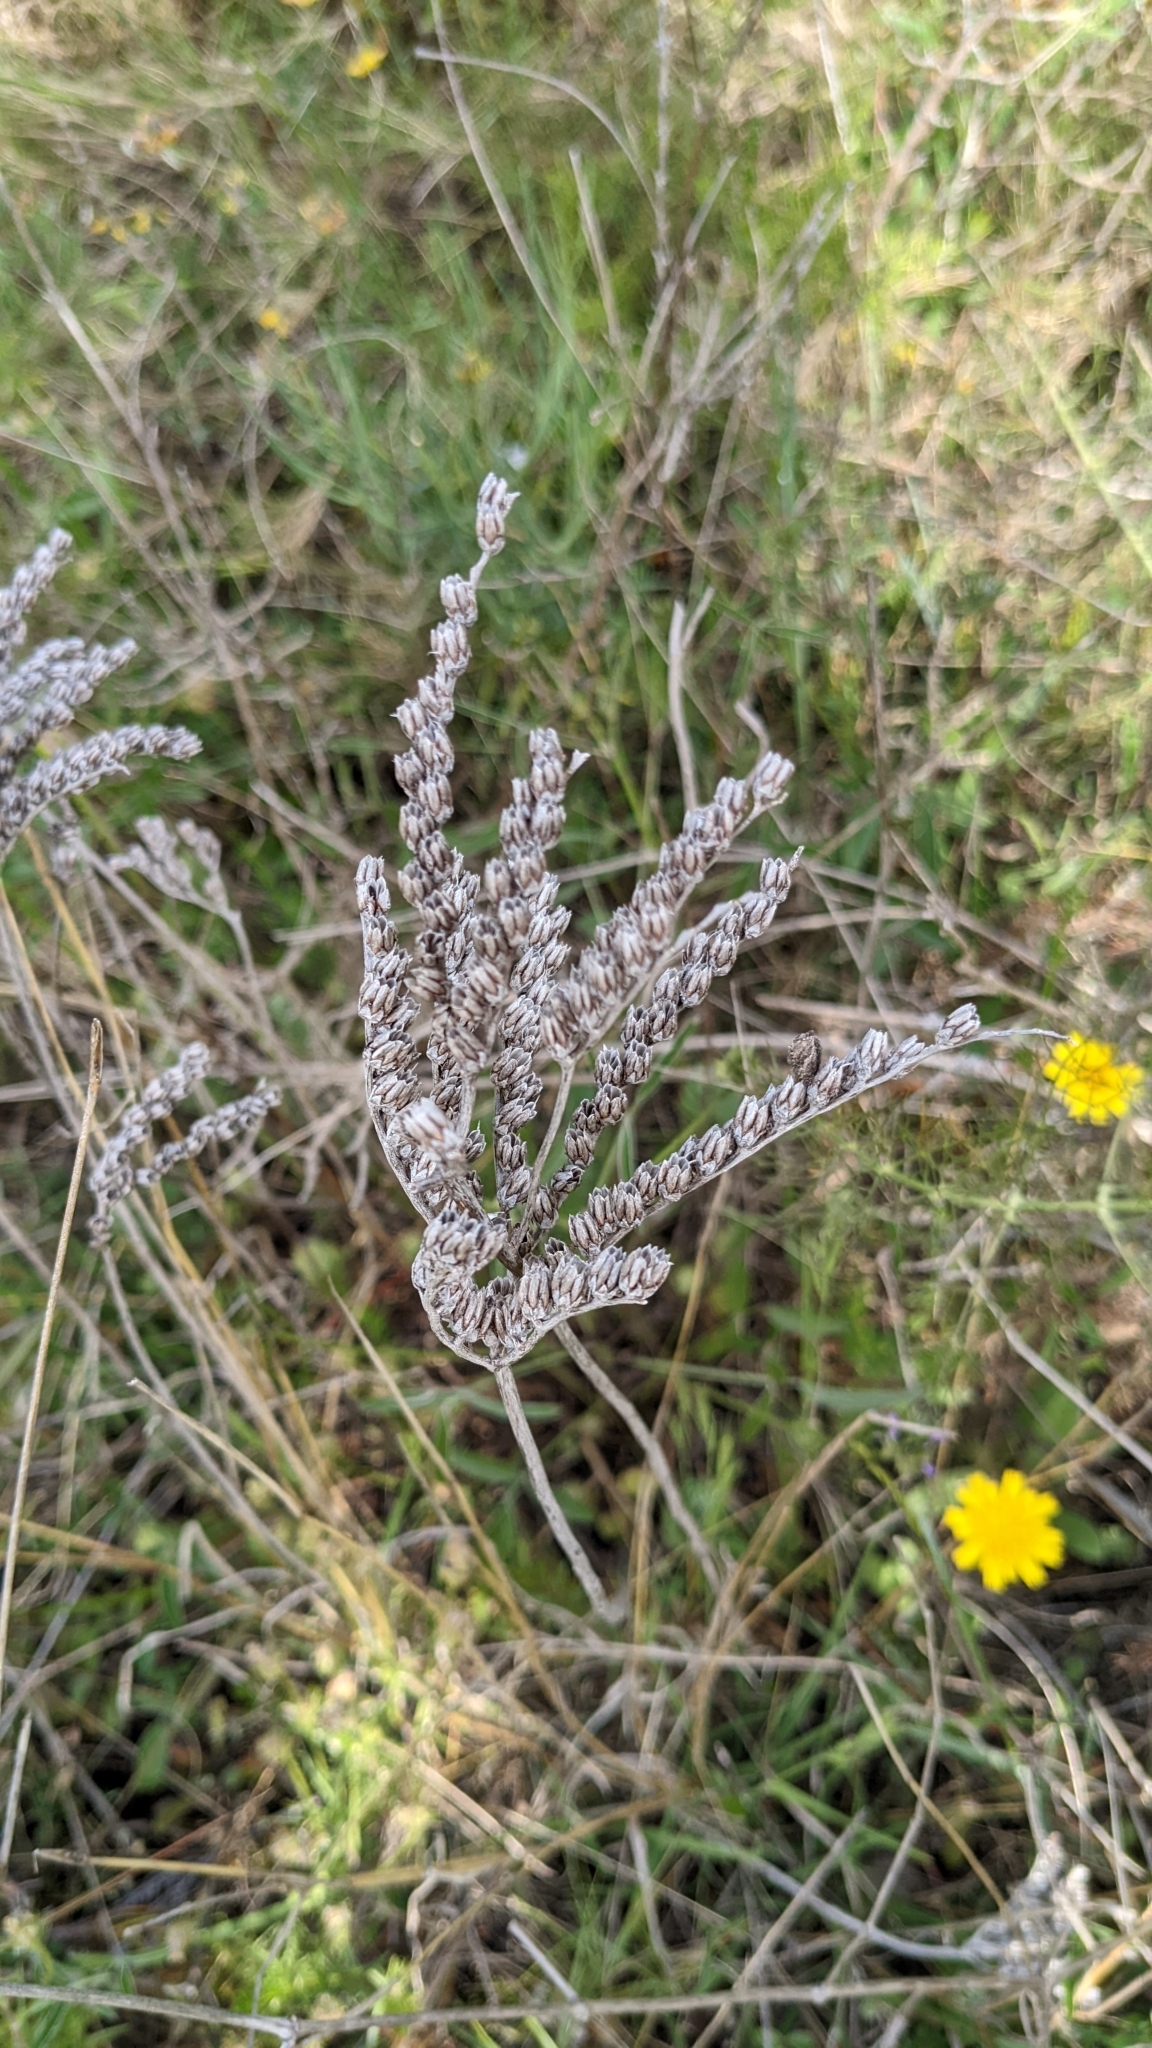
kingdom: Plantae
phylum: Tracheophyta
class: Magnoliopsida
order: Saxifragales
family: Crassulaceae
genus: Petrosedum
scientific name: Petrosedum sediforme
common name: Pale stonecrop
